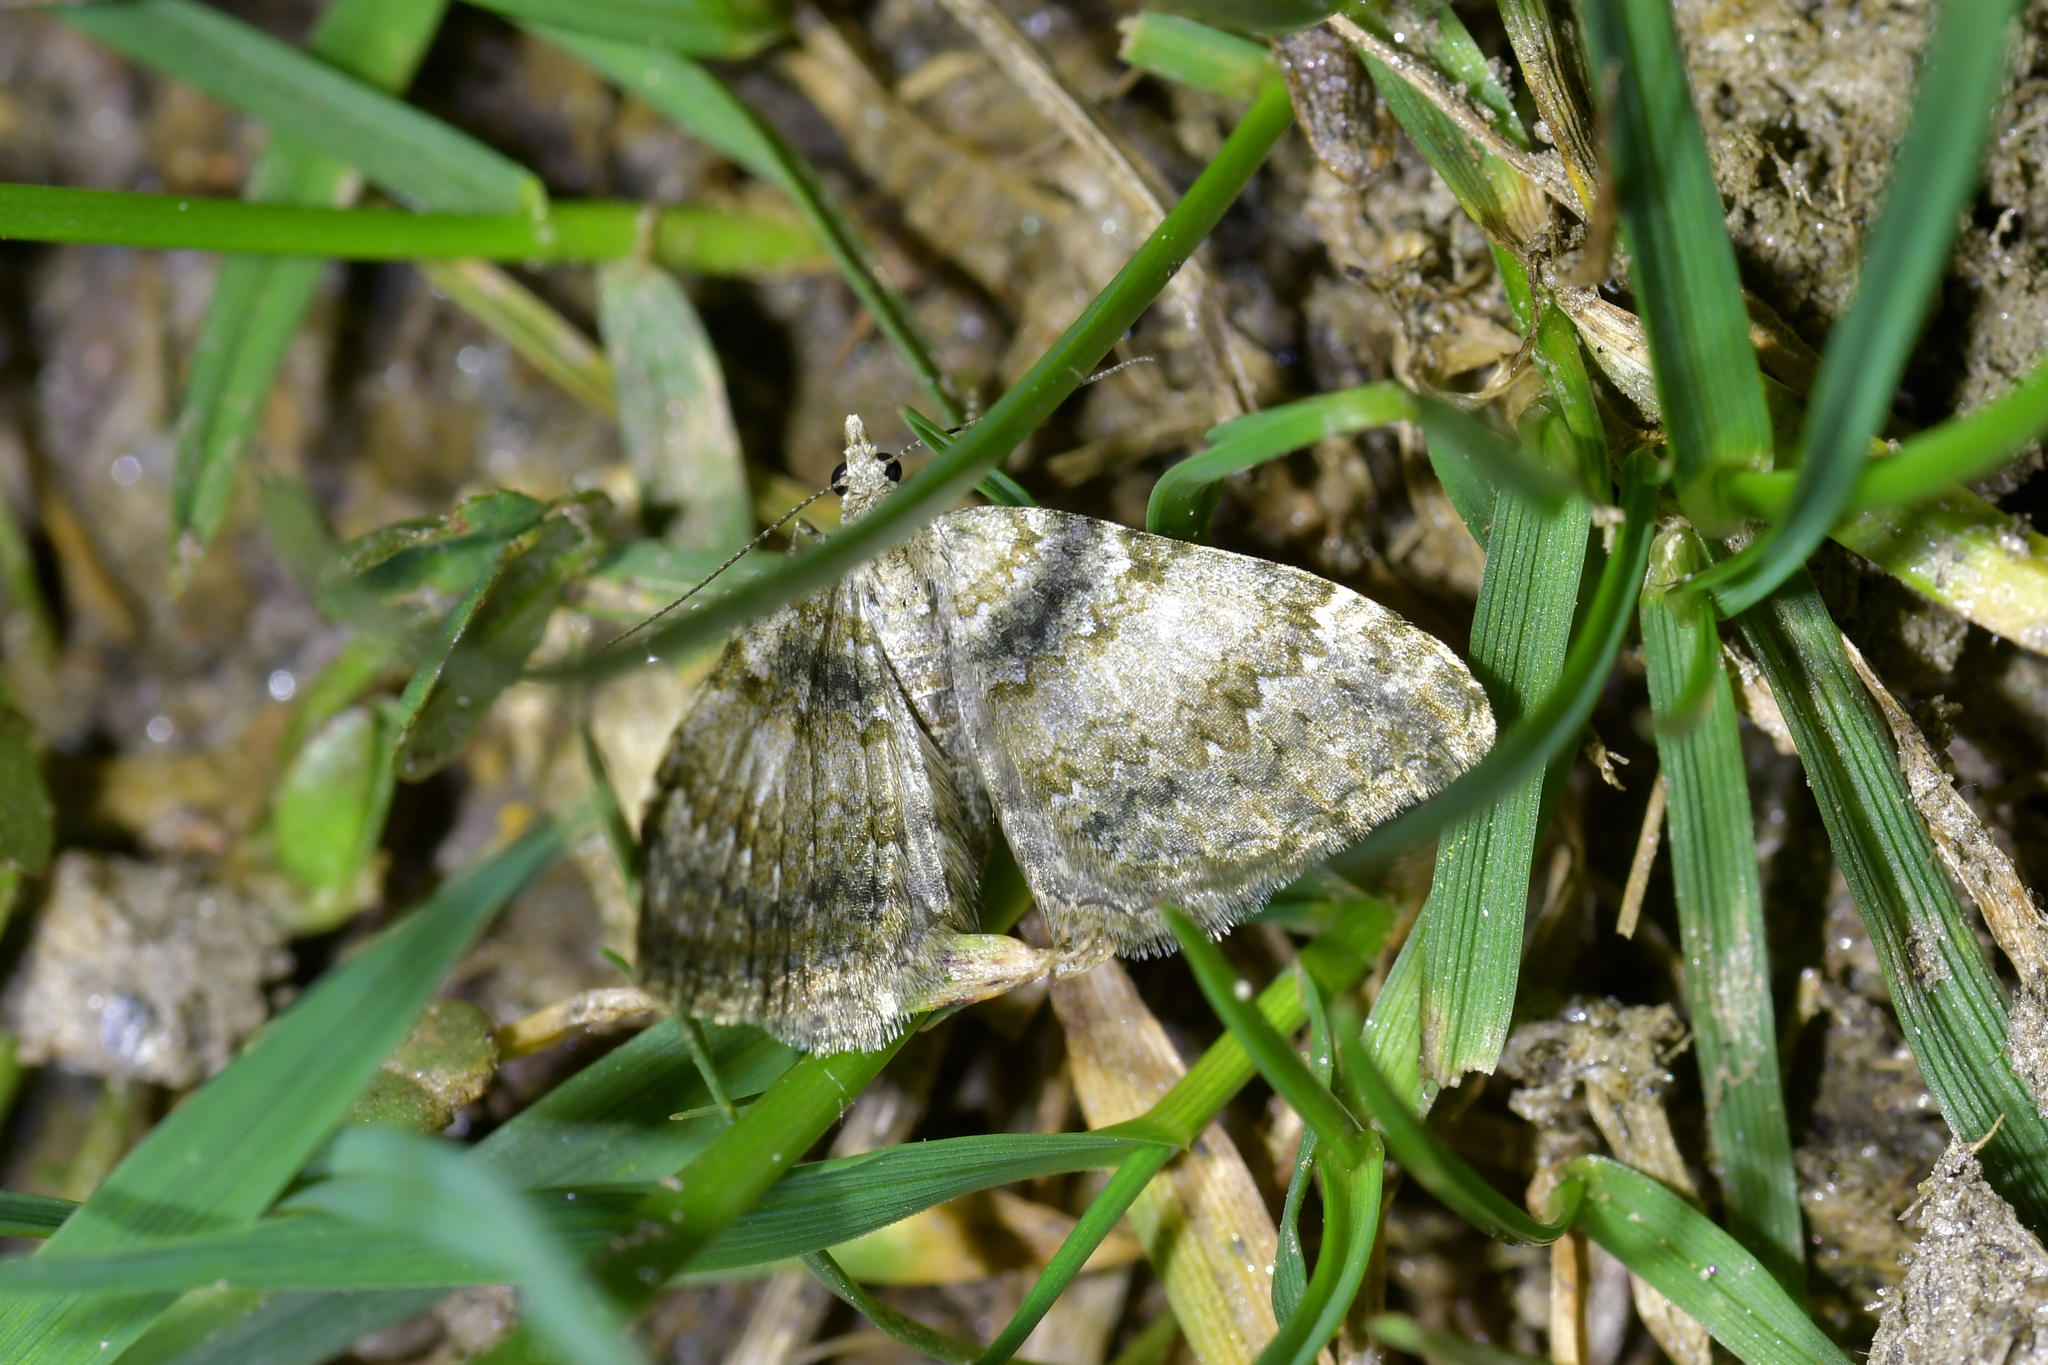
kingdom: Animalia
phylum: Arthropoda
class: Insecta
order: Lepidoptera
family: Geometridae
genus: Helastia
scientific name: Helastia christinae
